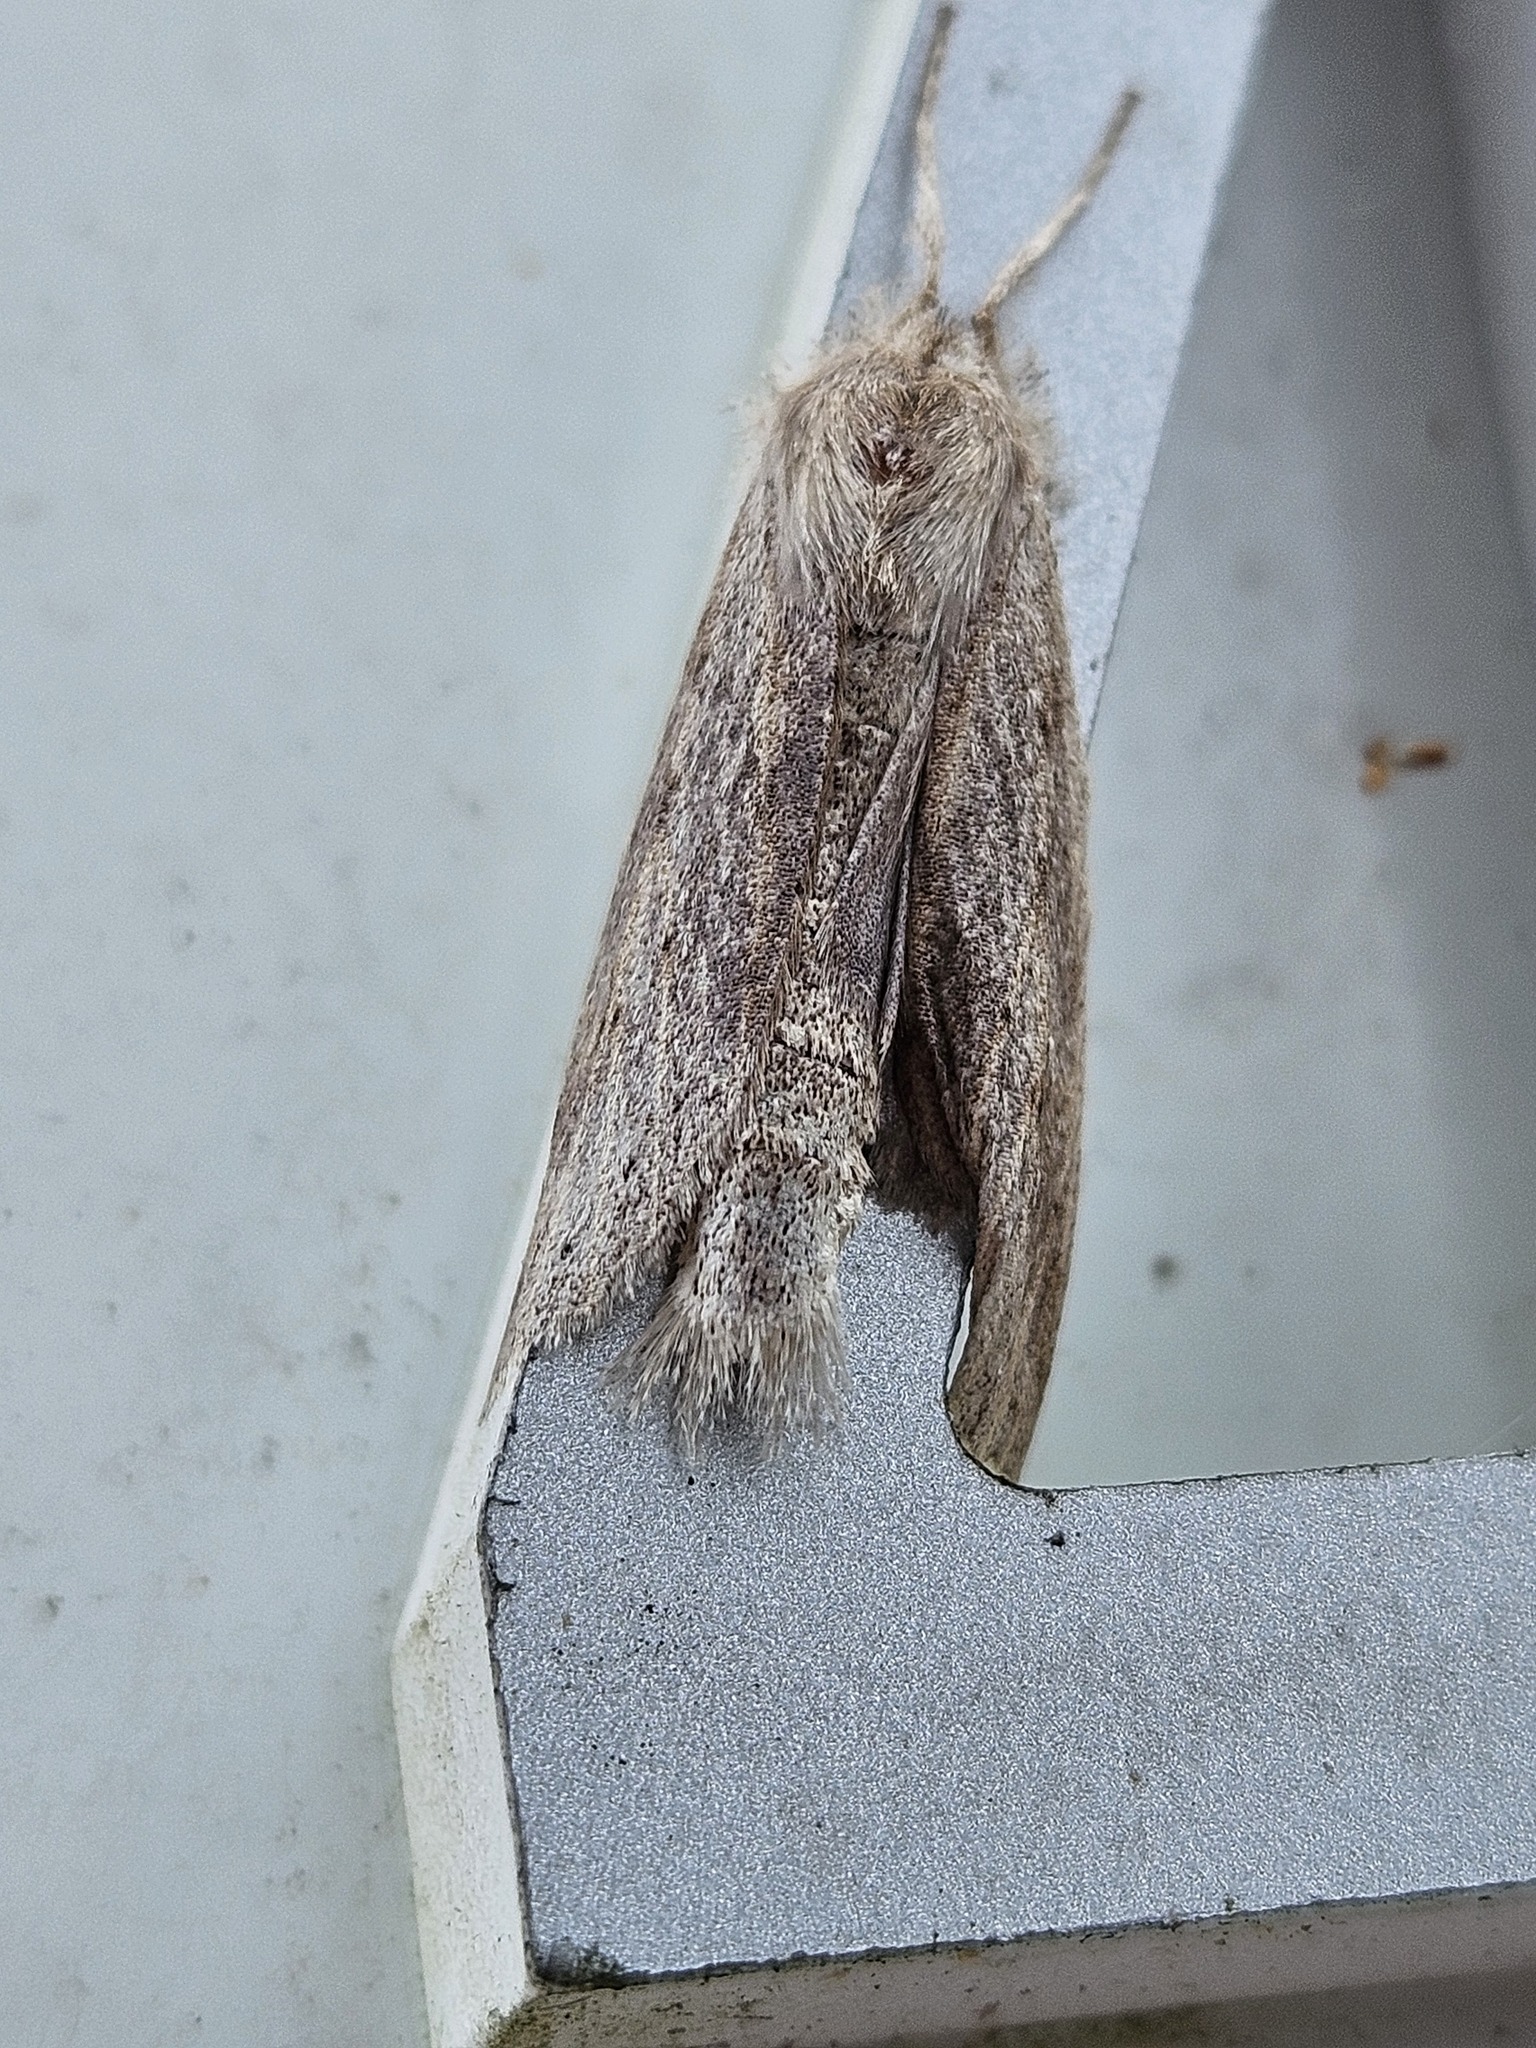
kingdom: Animalia
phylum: Arthropoda
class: Insecta
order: Lepidoptera
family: Geometridae
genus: Declana
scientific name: Declana leptomera
